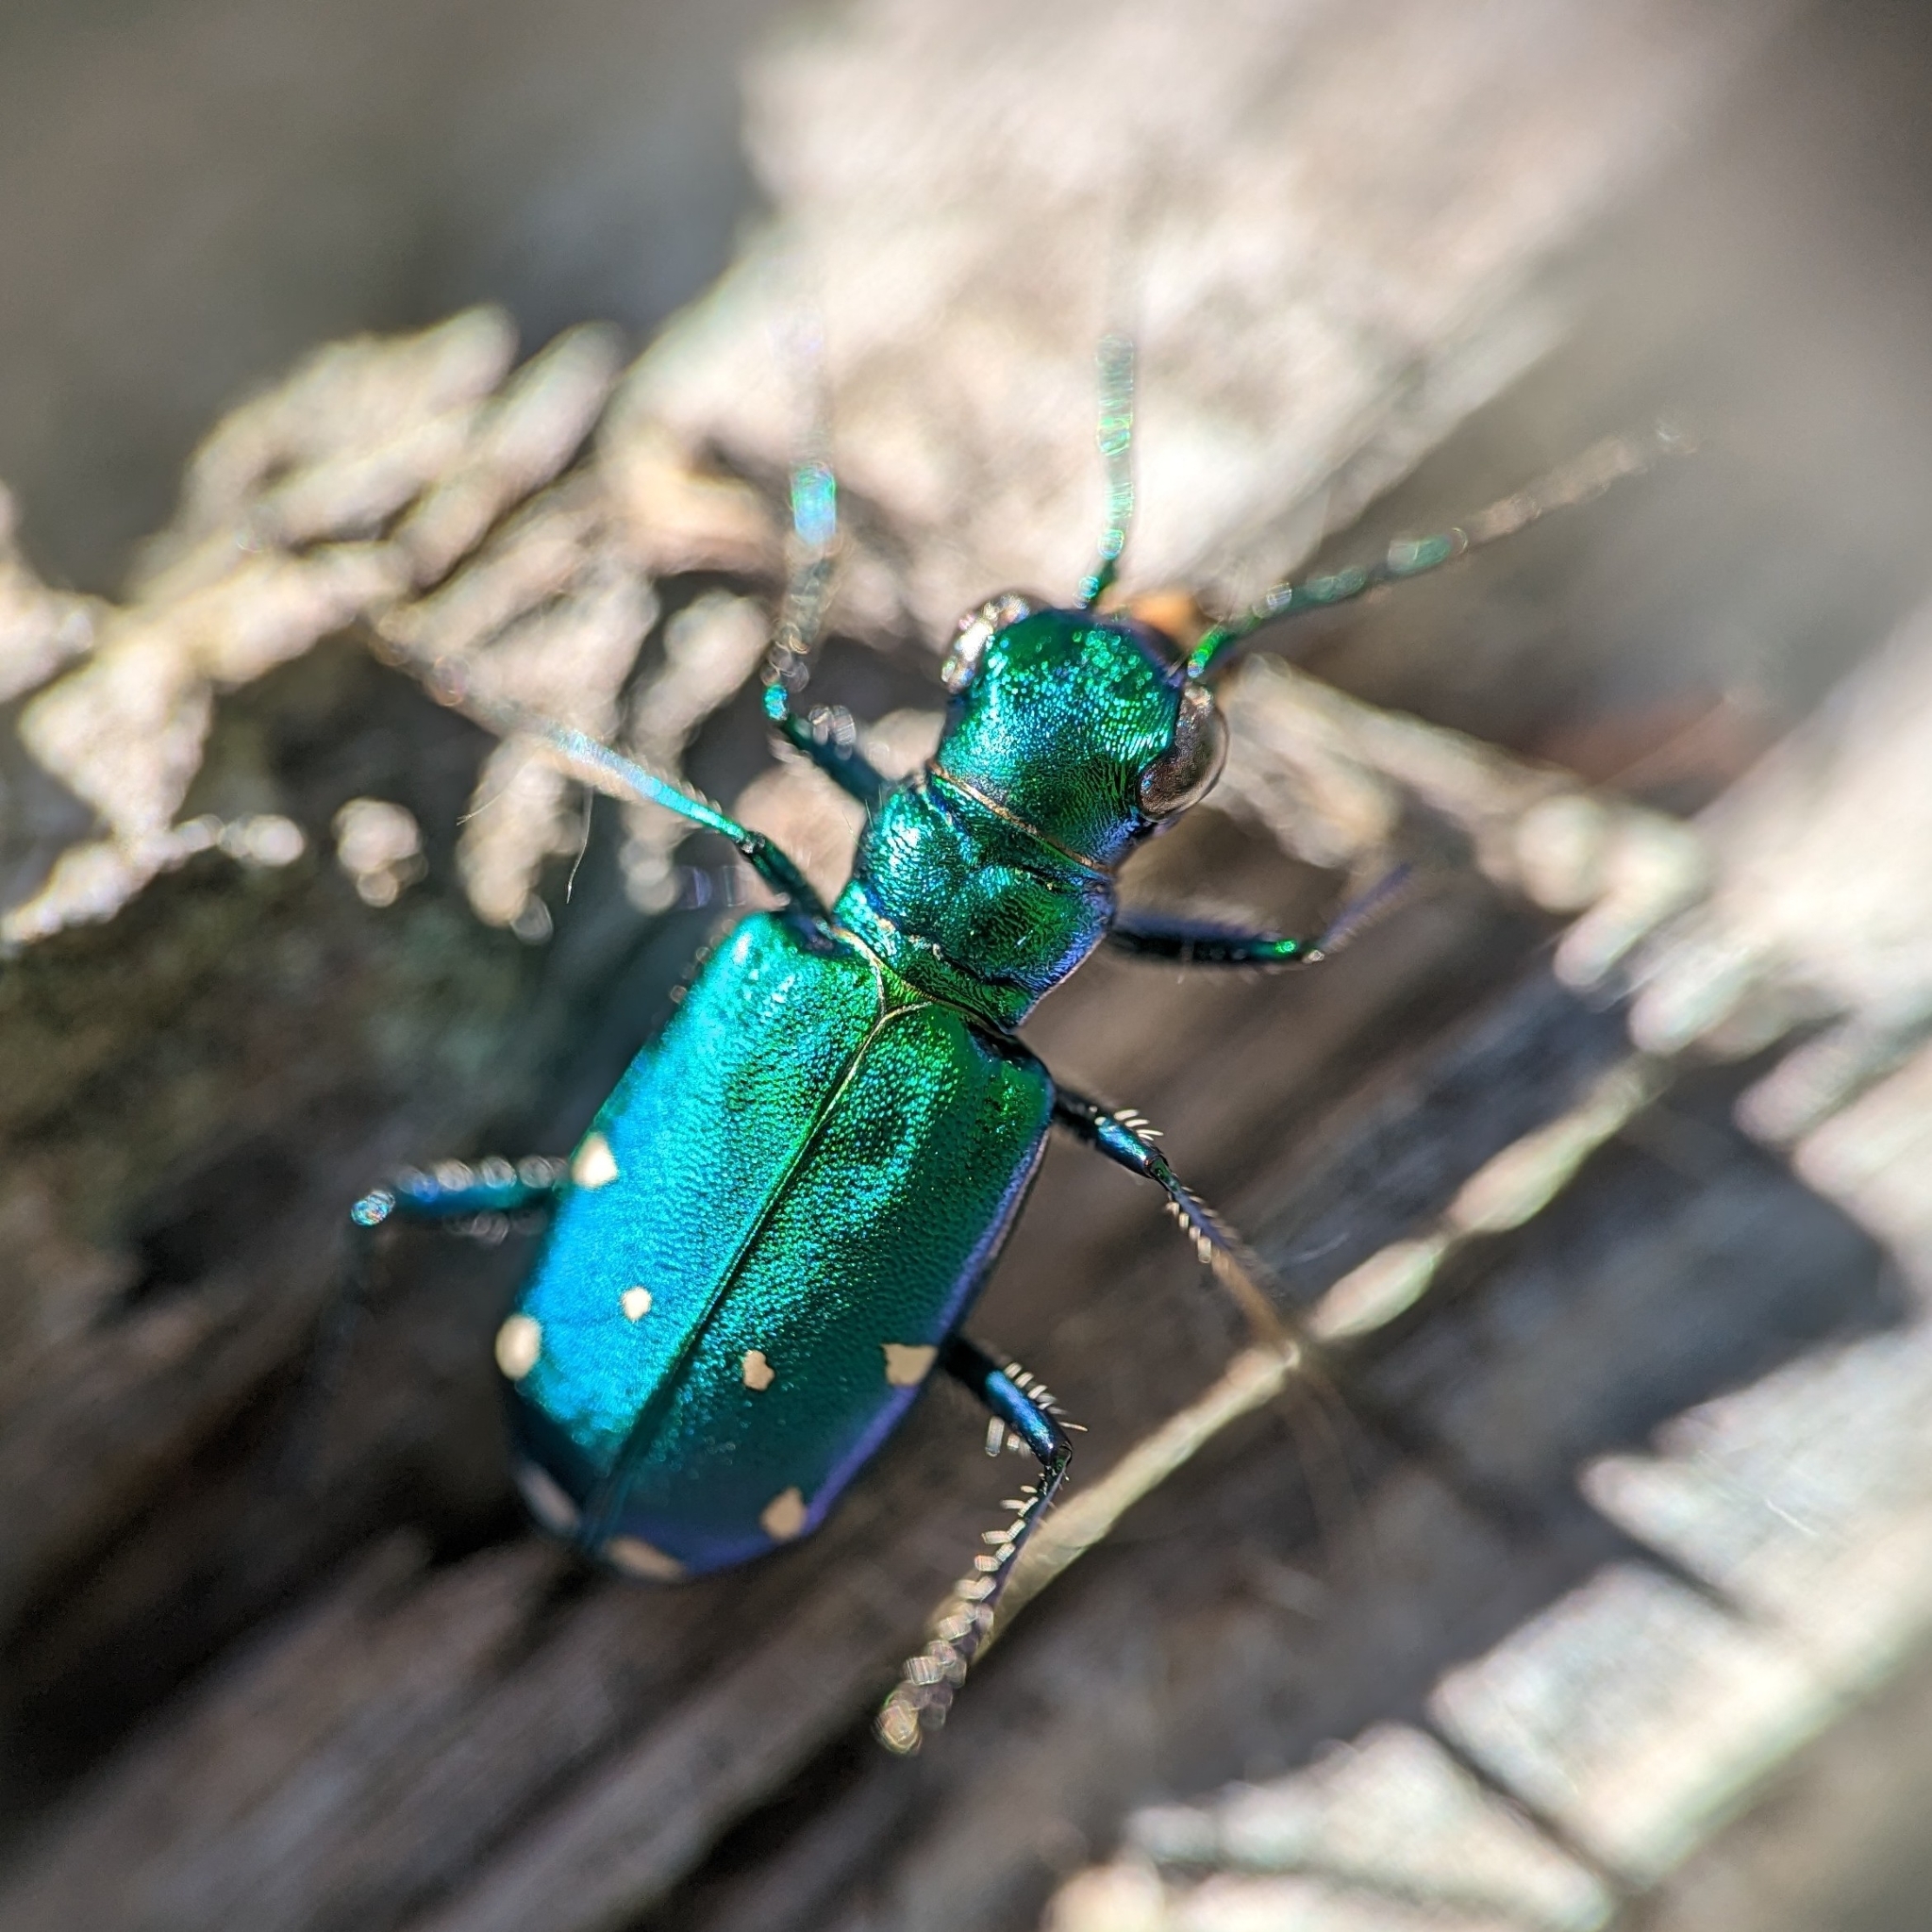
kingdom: Animalia
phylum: Arthropoda
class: Insecta
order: Coleoptera
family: Carabidae
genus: Cicindela
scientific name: Cicindela sexguttata
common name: Six-spotted tiger beetle
